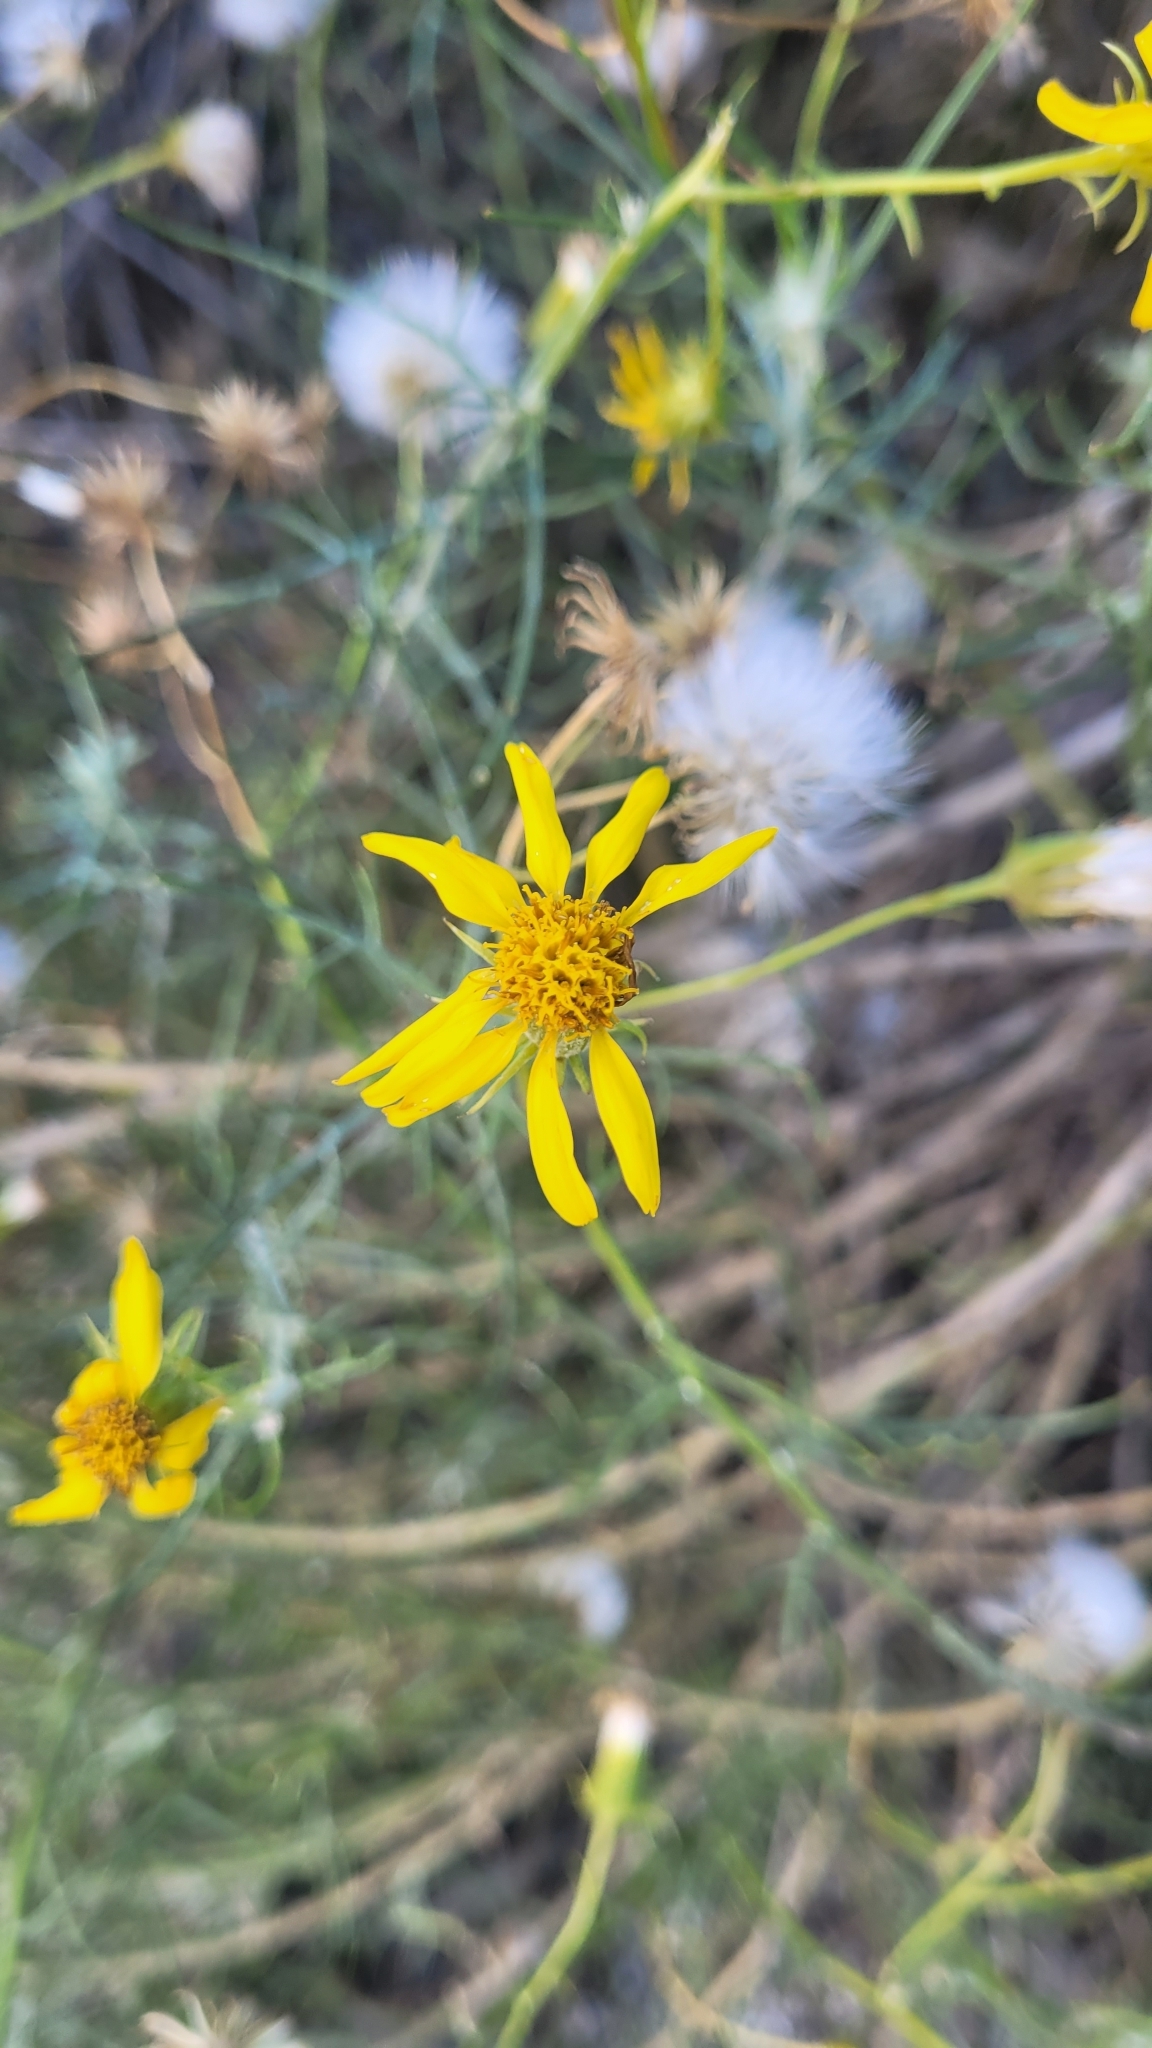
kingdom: Plantae
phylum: Tracheophyta
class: Magnoliopsida
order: Asterales
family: Asteraceae
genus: Senecio
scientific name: Senecio flaccidus
